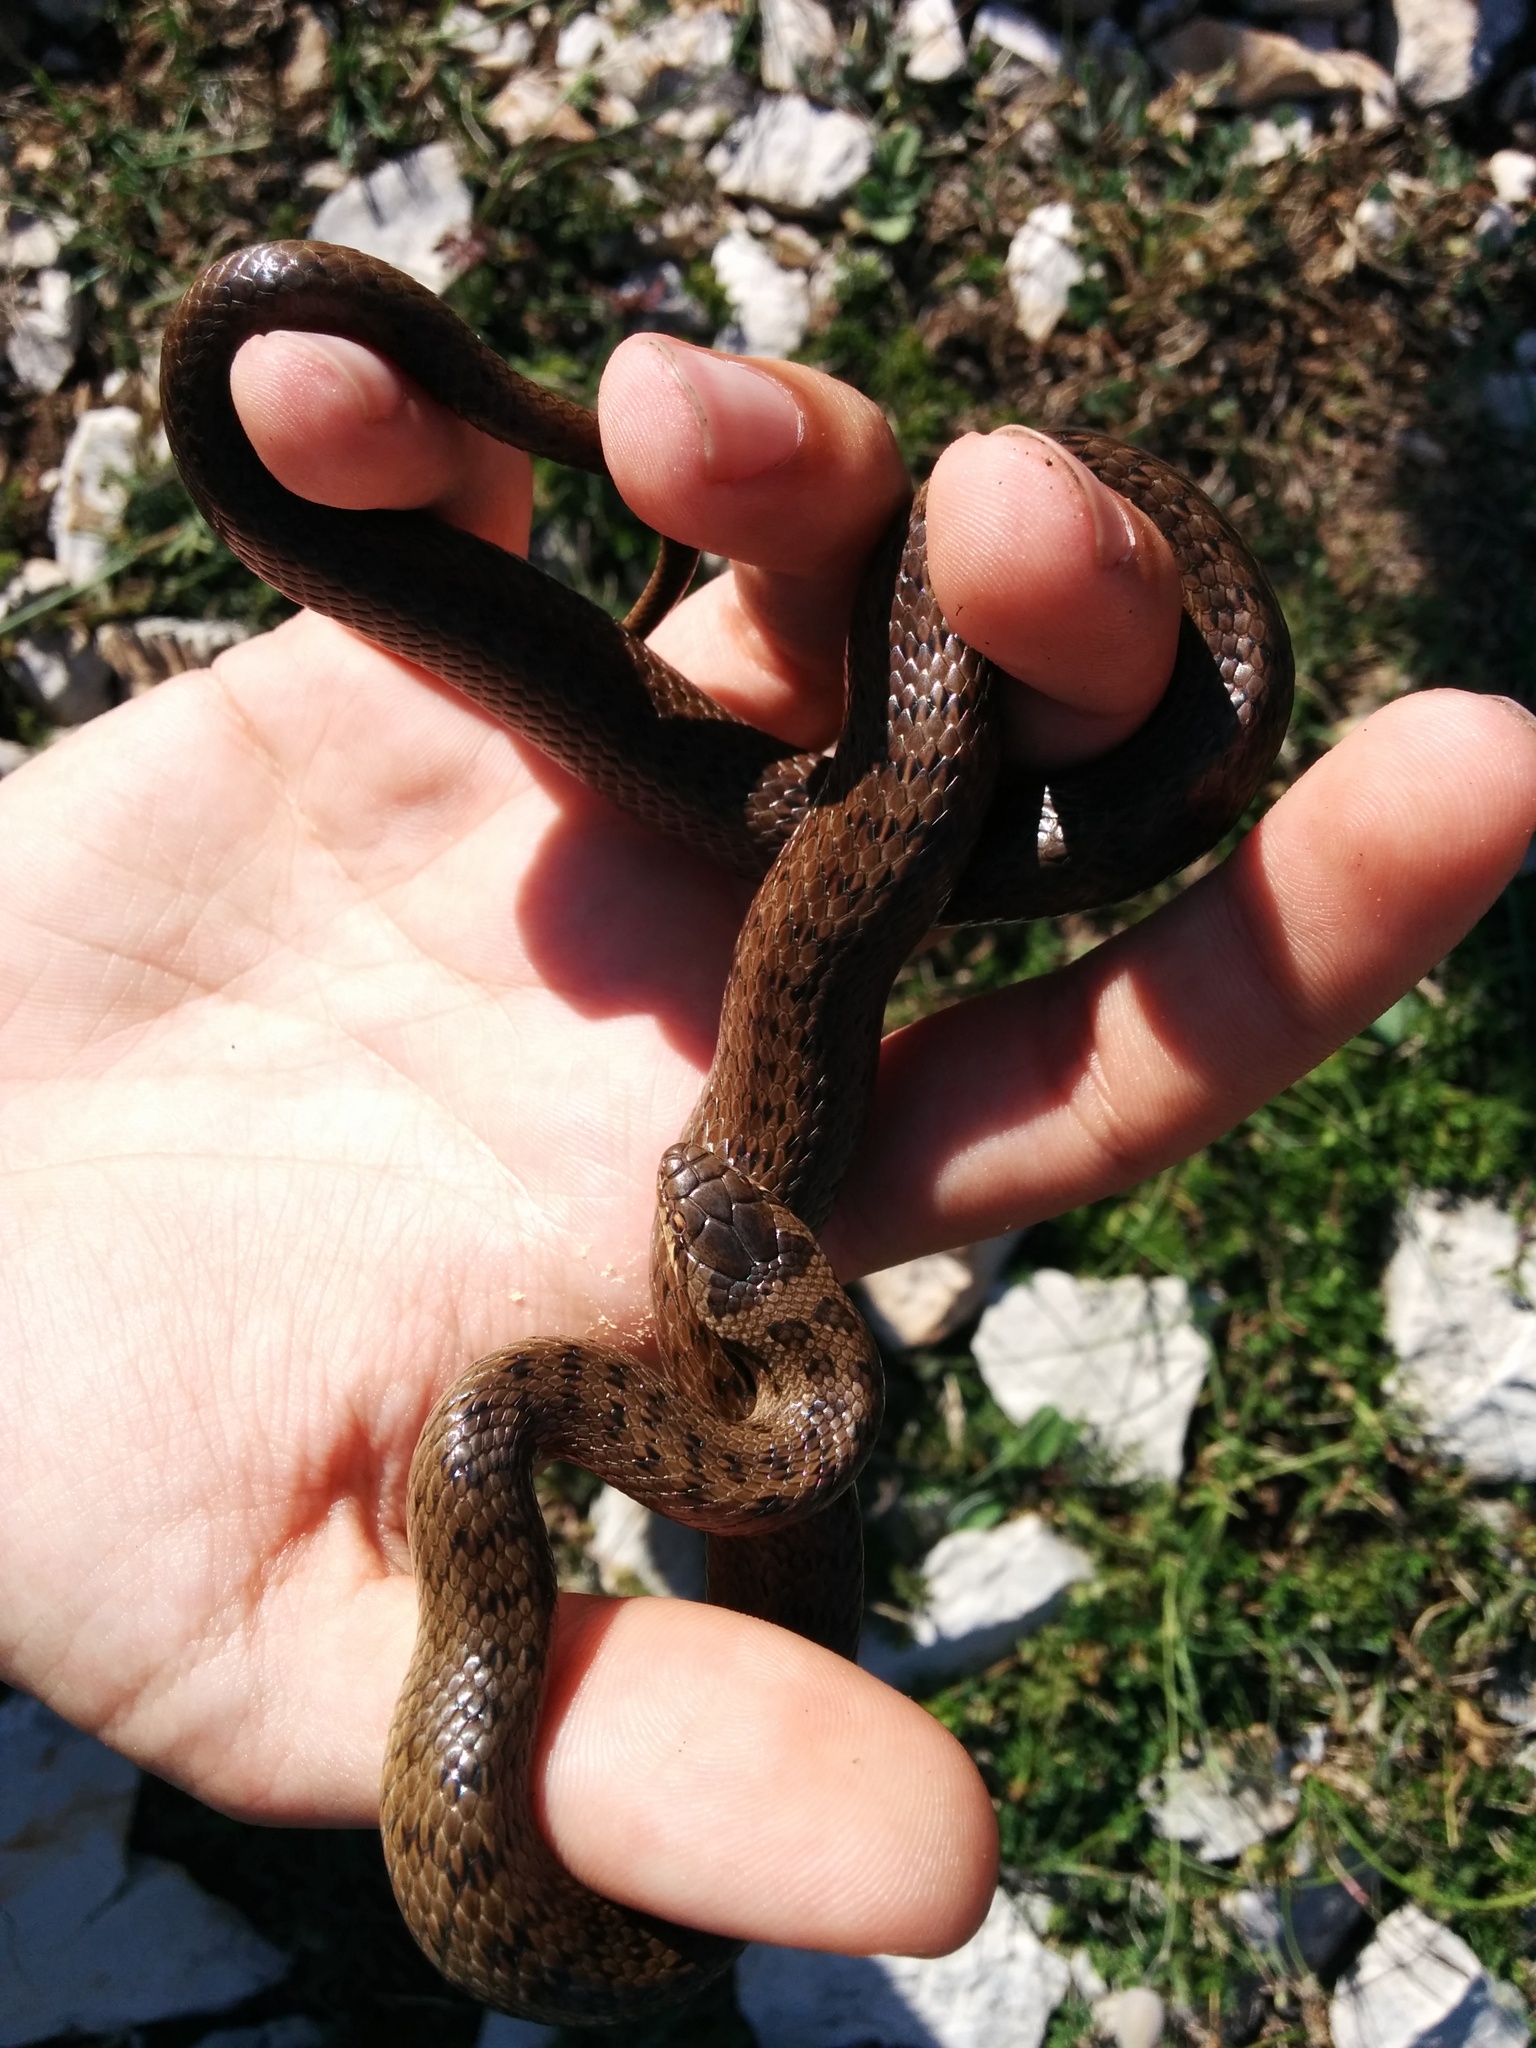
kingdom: Animalia
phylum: Chordata
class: Squamata
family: Colubridae
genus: Coronella
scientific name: Coronella austriaca
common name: Smooth snake
